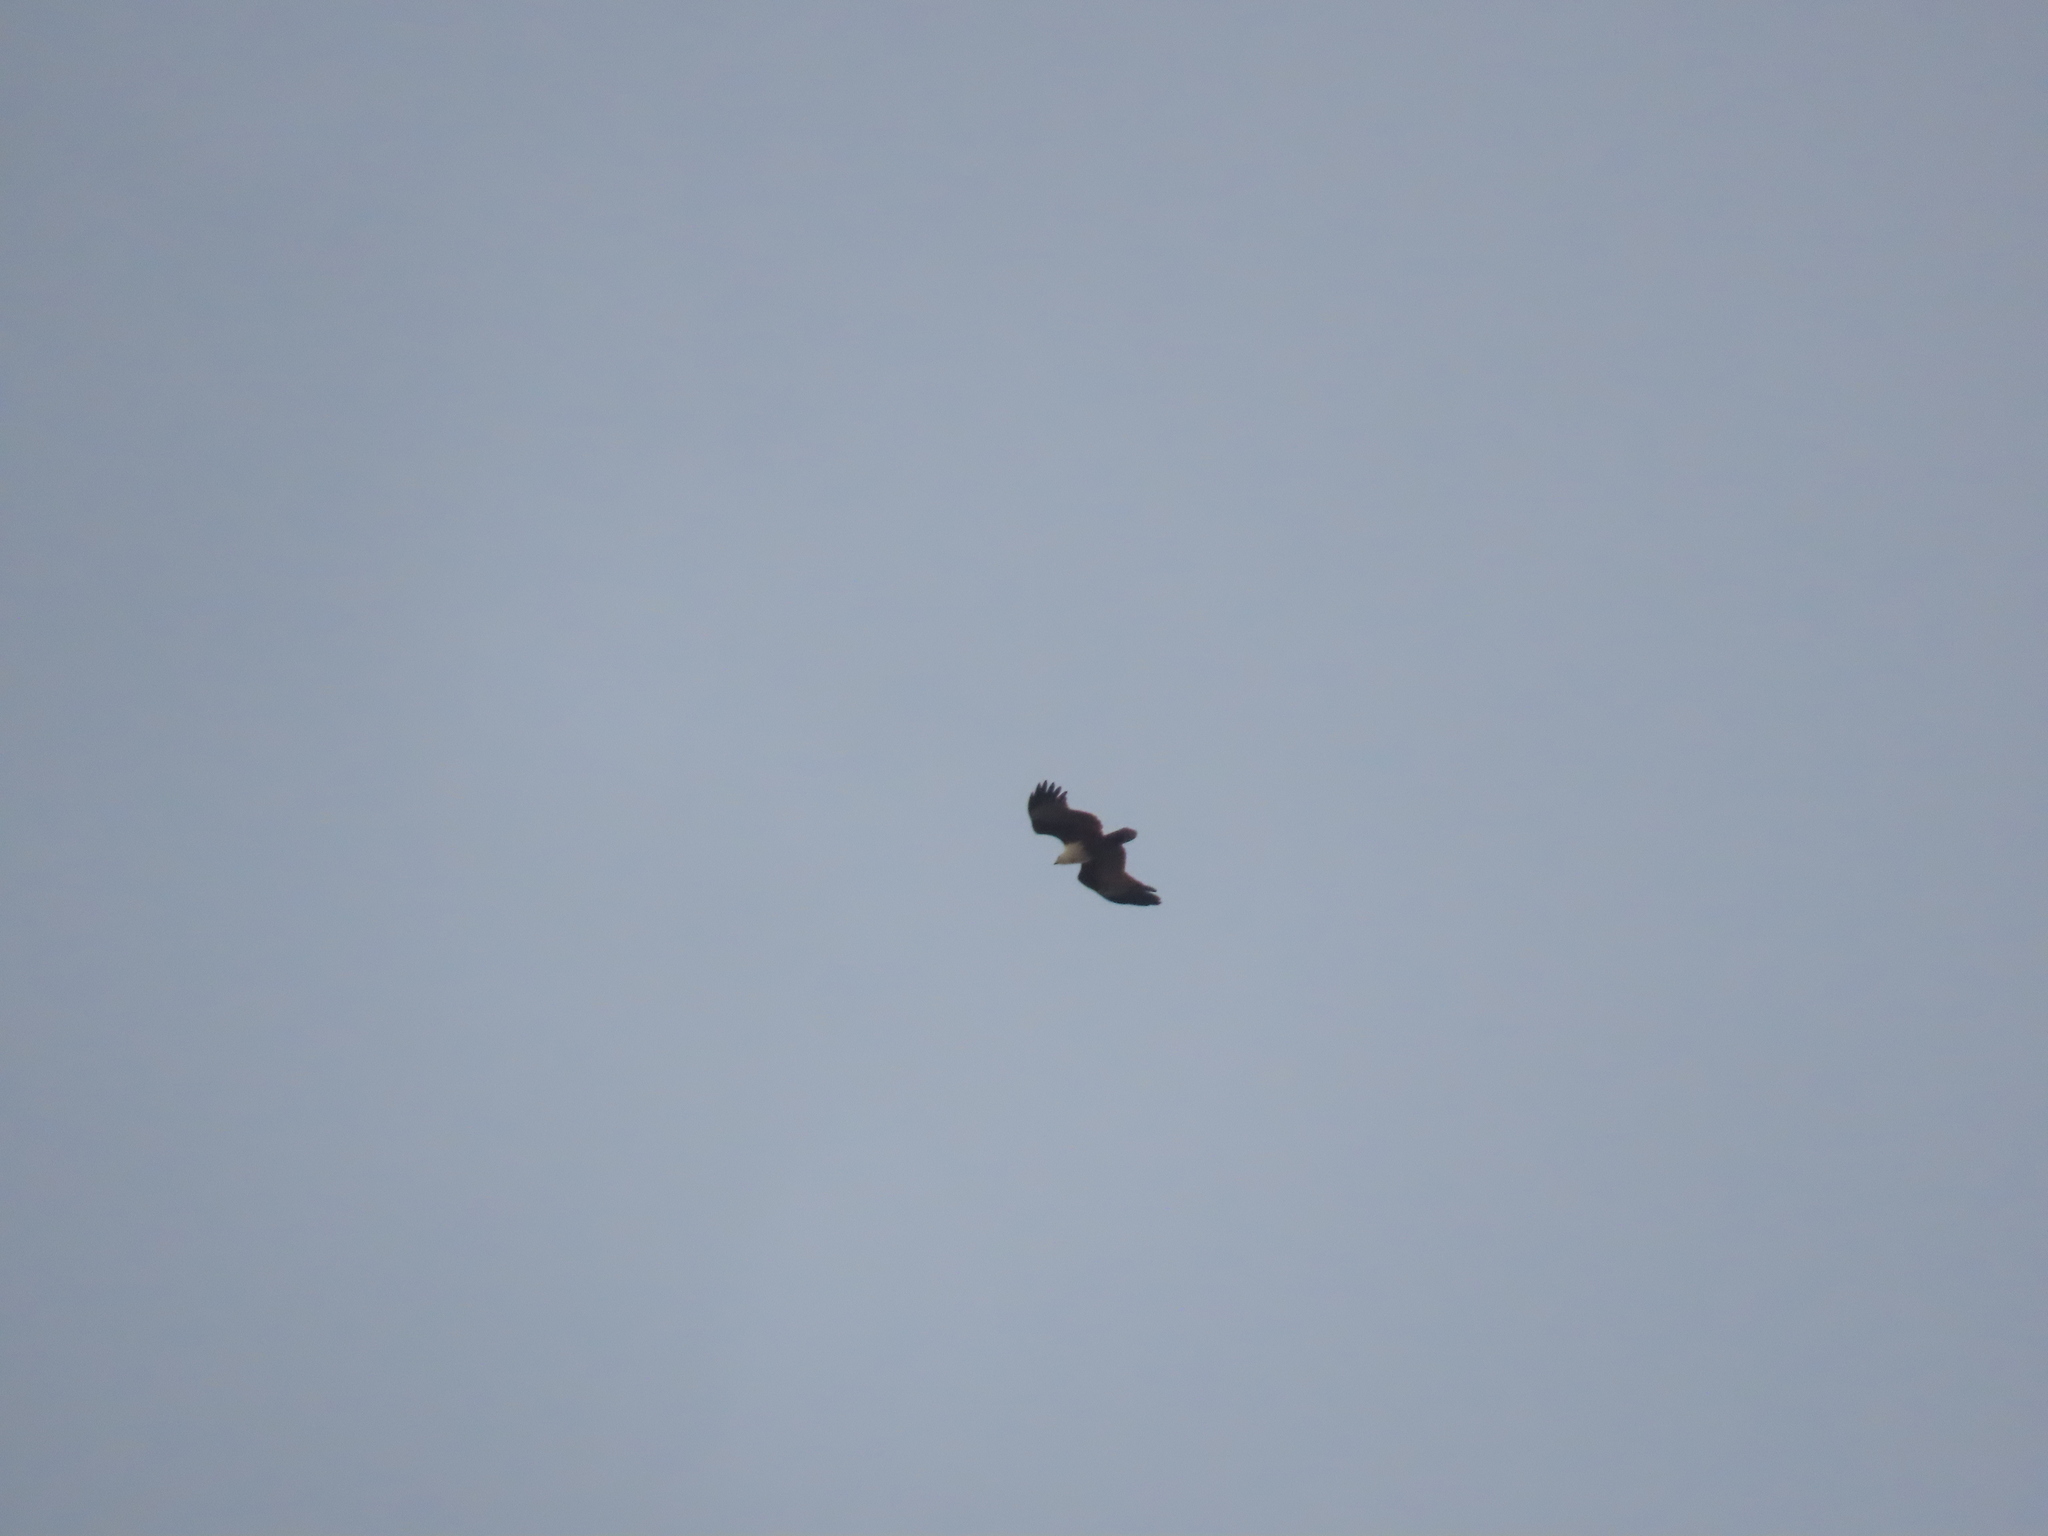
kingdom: Animalia
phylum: Chordata
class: Aves
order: Accipitriformes
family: Accipitridae
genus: Haliastur
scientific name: Haliastur indus
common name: Brahminy kite
